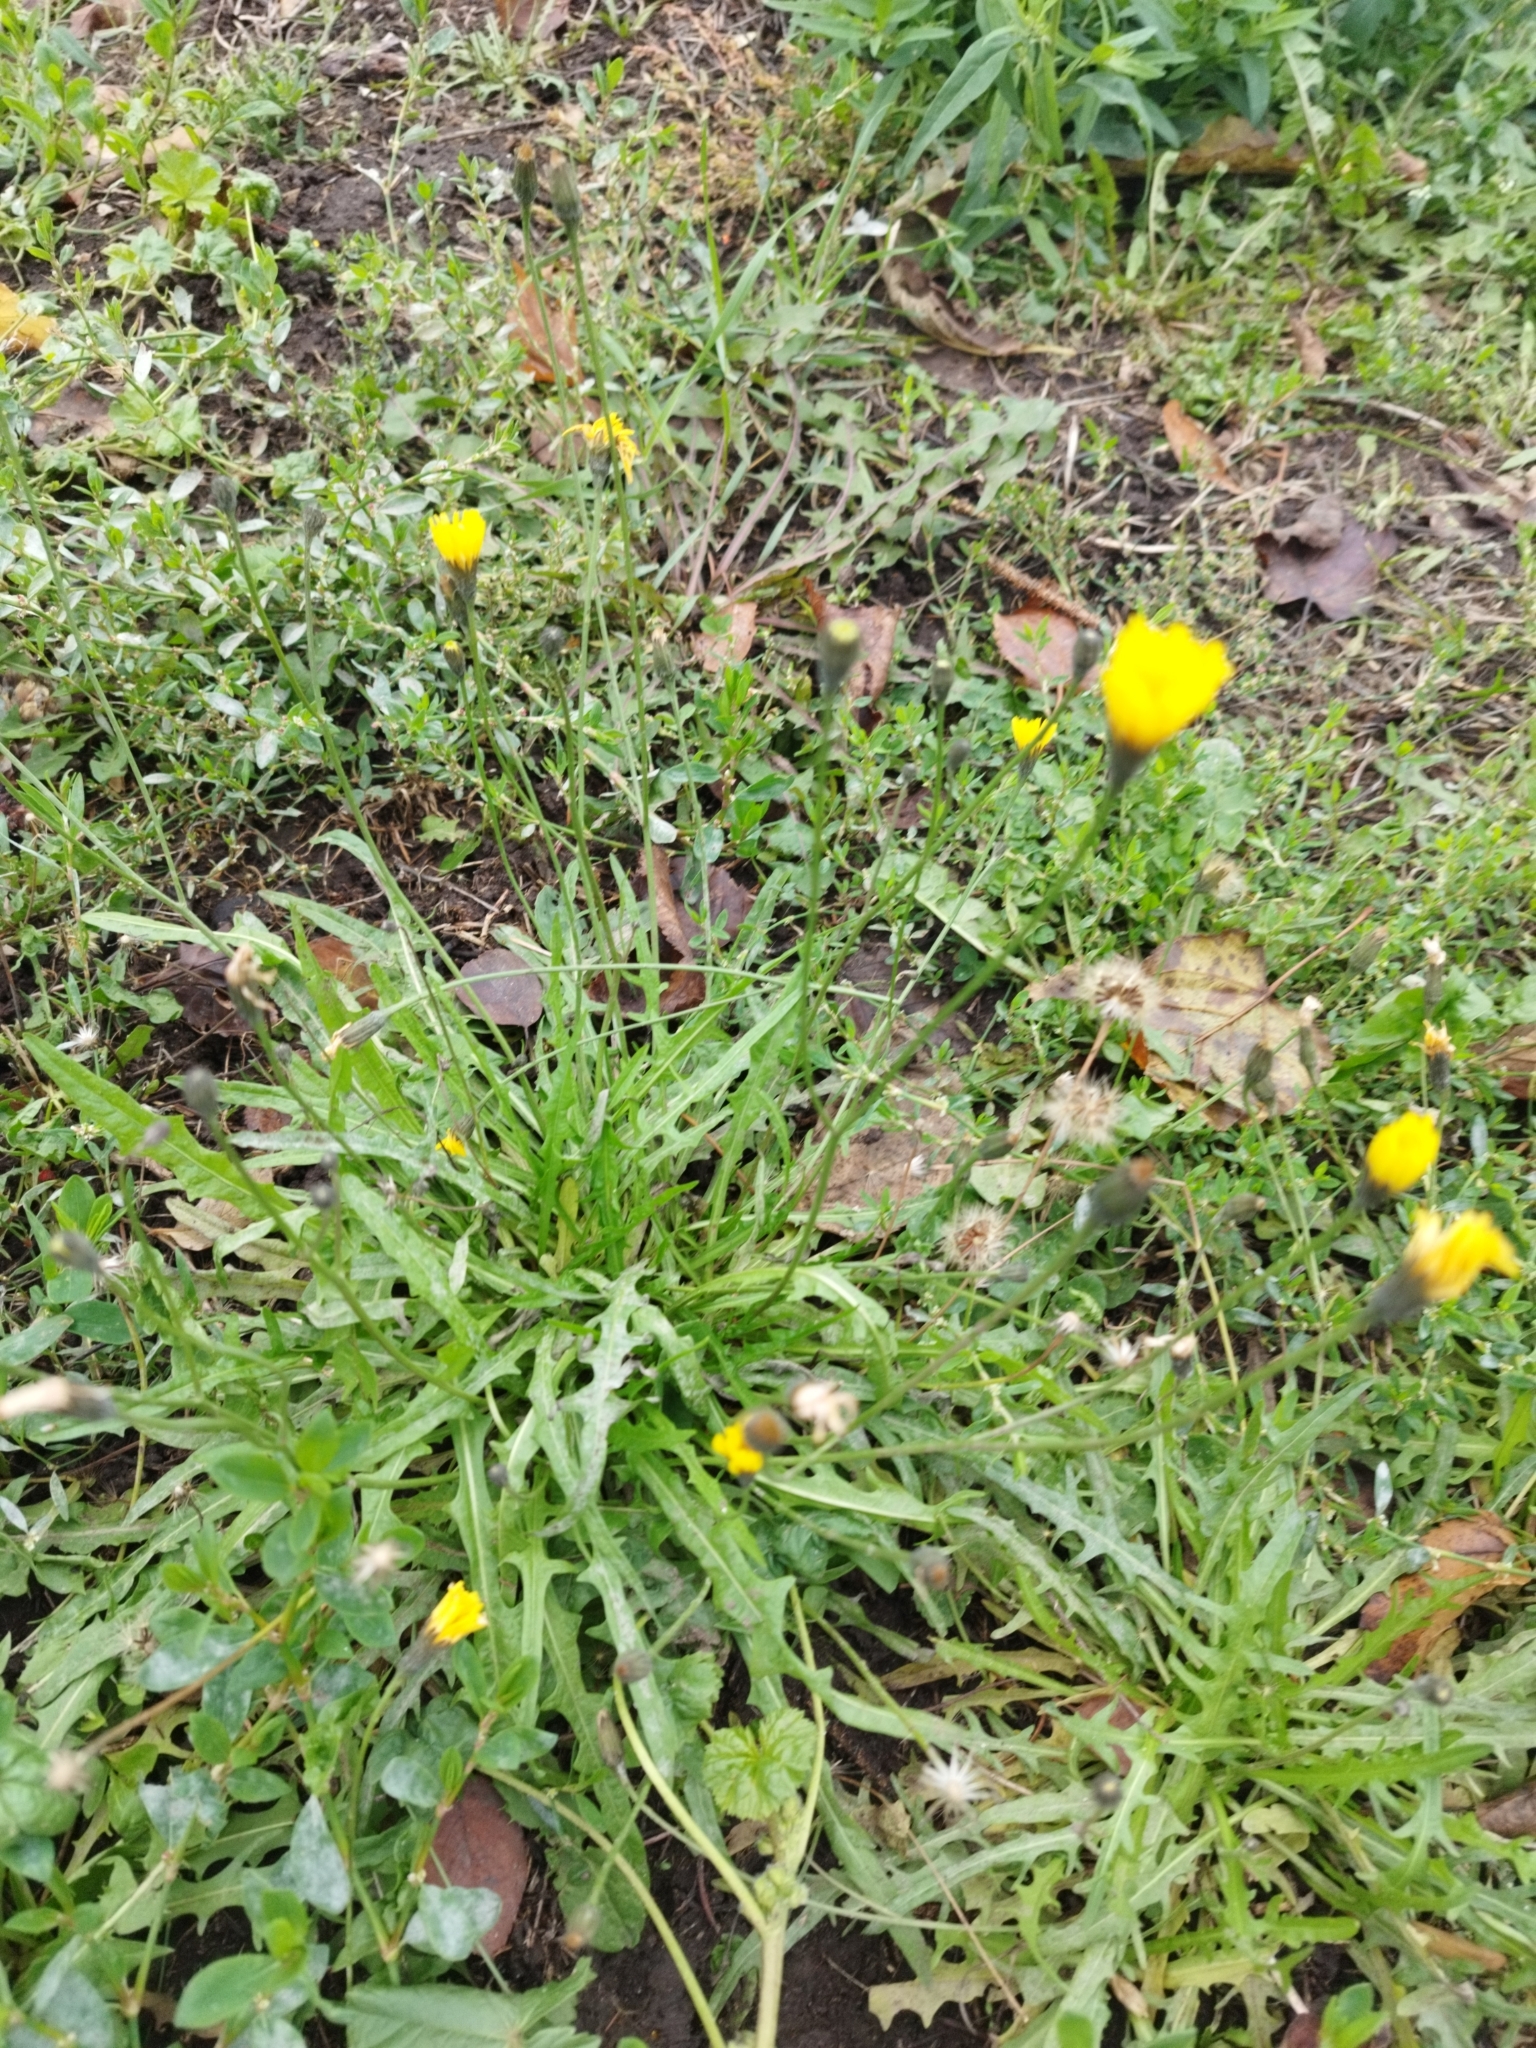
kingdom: Plantae
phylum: Tracheophyta
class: Magnoliopsida
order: Asterales
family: Asteraceae
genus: Scorzoneroides
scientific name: Scorzoneroides autumnalis
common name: Autumn hawkbit
